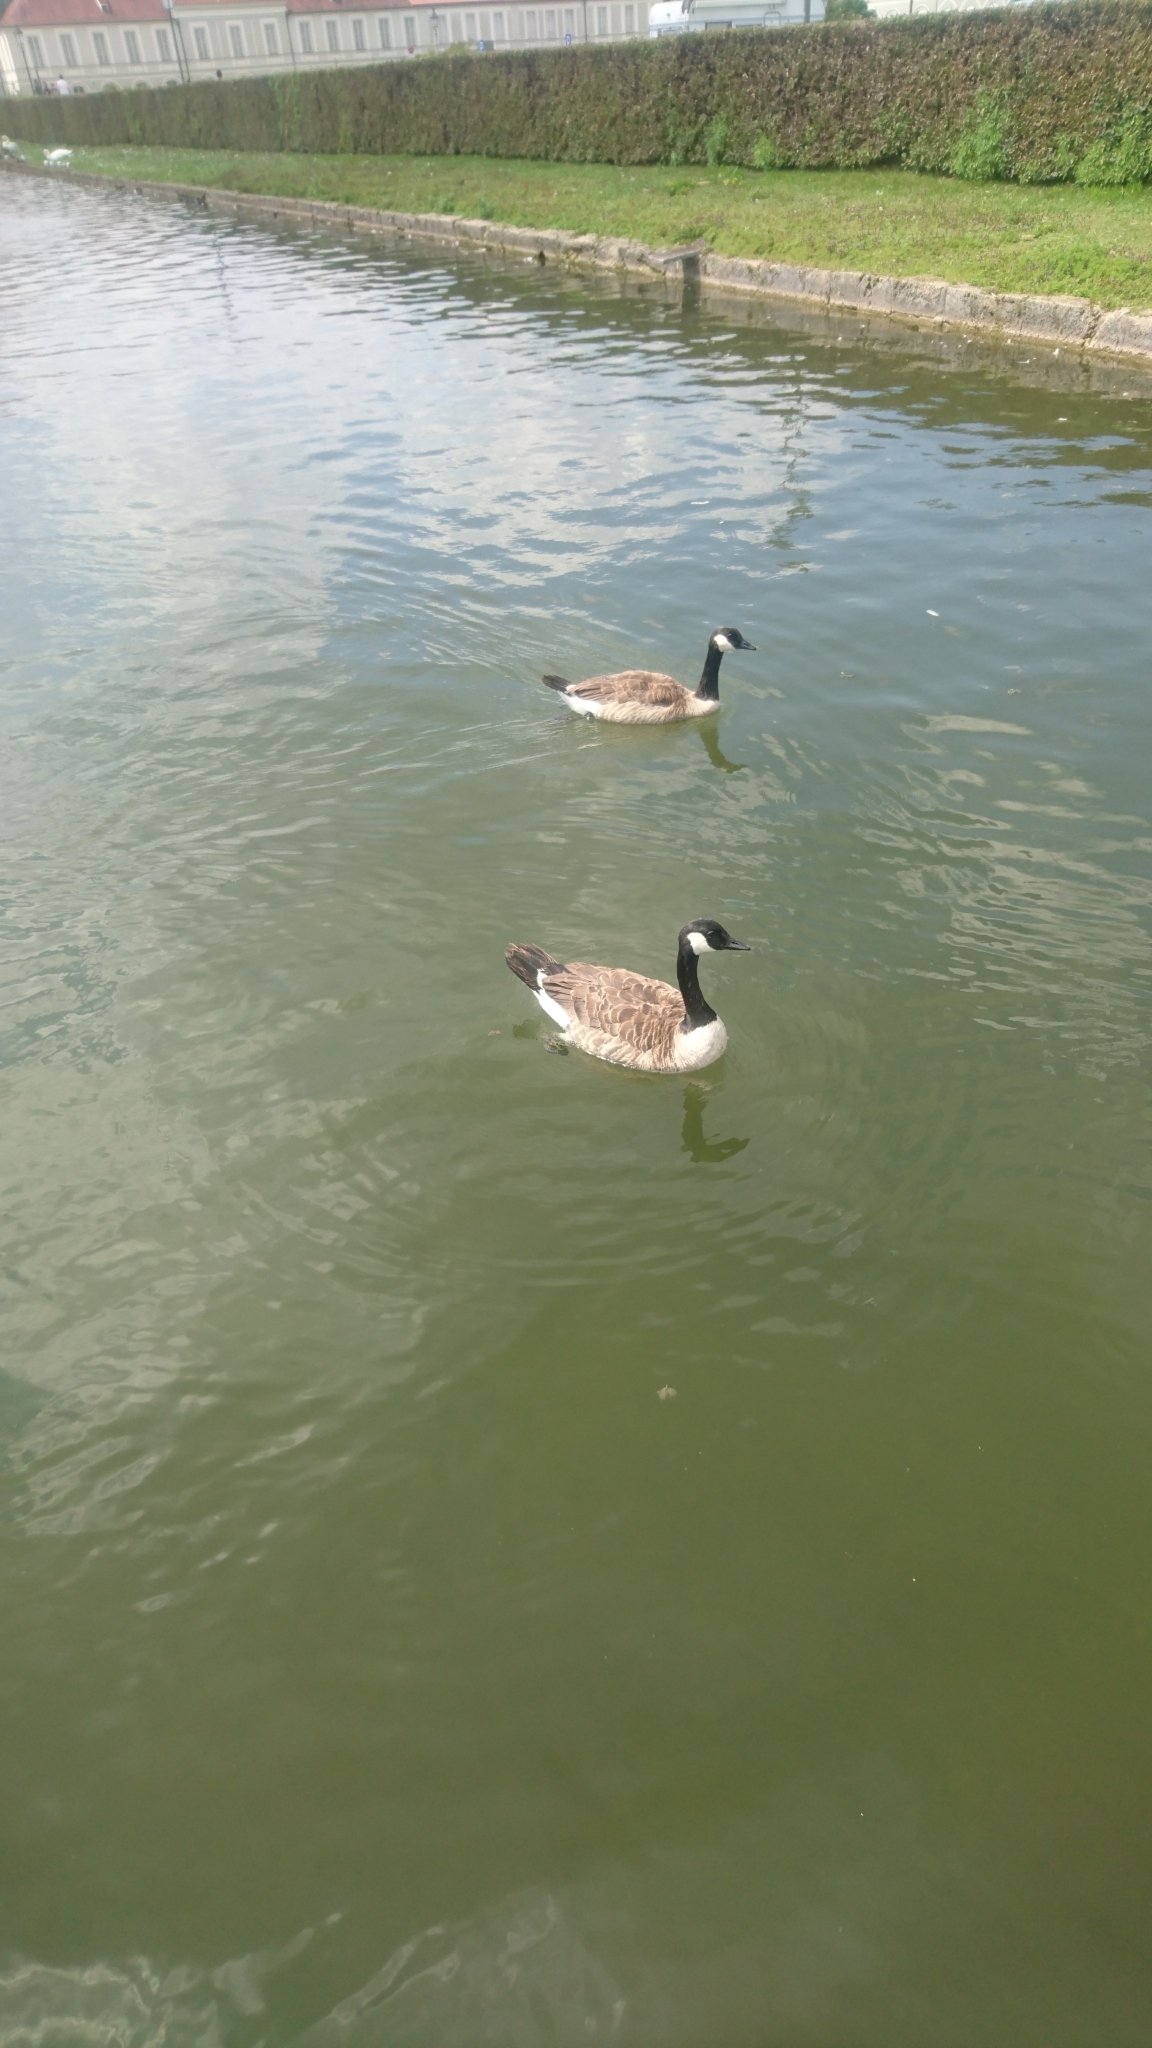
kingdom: Animalia
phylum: Chordata
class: Aves
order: Anseriformes
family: Anatidae
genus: Branta
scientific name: Branta canadensis
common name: Canada goose
